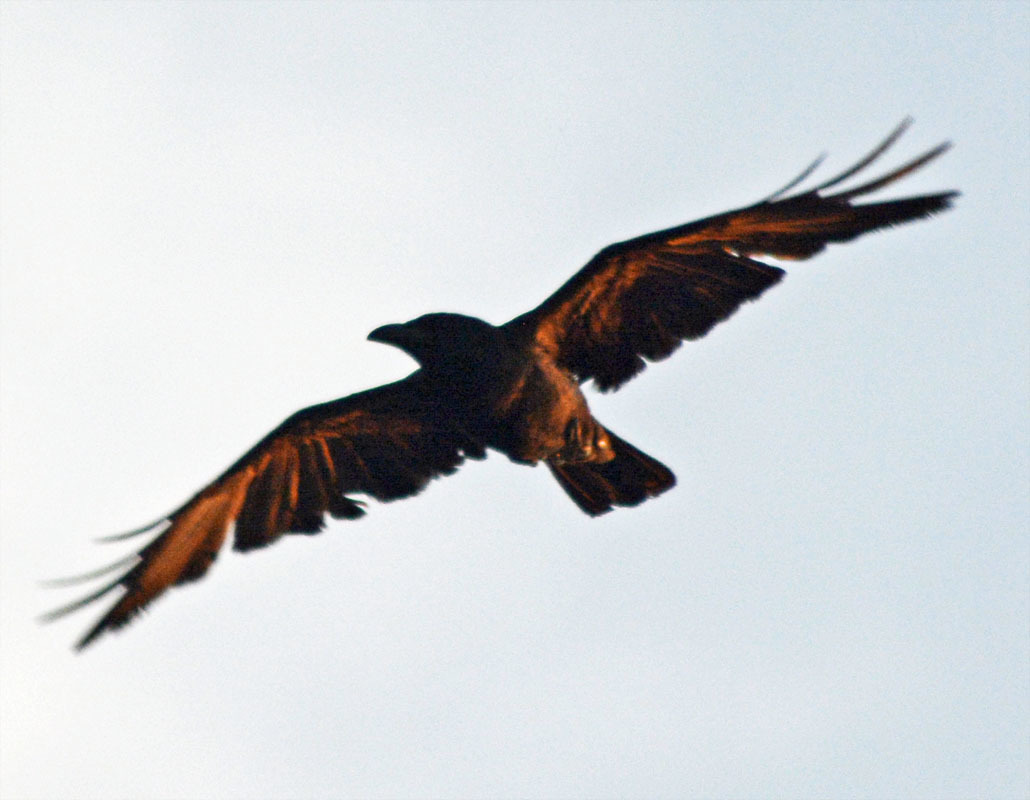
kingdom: Animalia
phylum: Chordata
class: Aves
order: Passeriformes
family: Corvidae
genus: Corvus
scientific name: Corvus sinaloae
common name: Sinaloa crow
